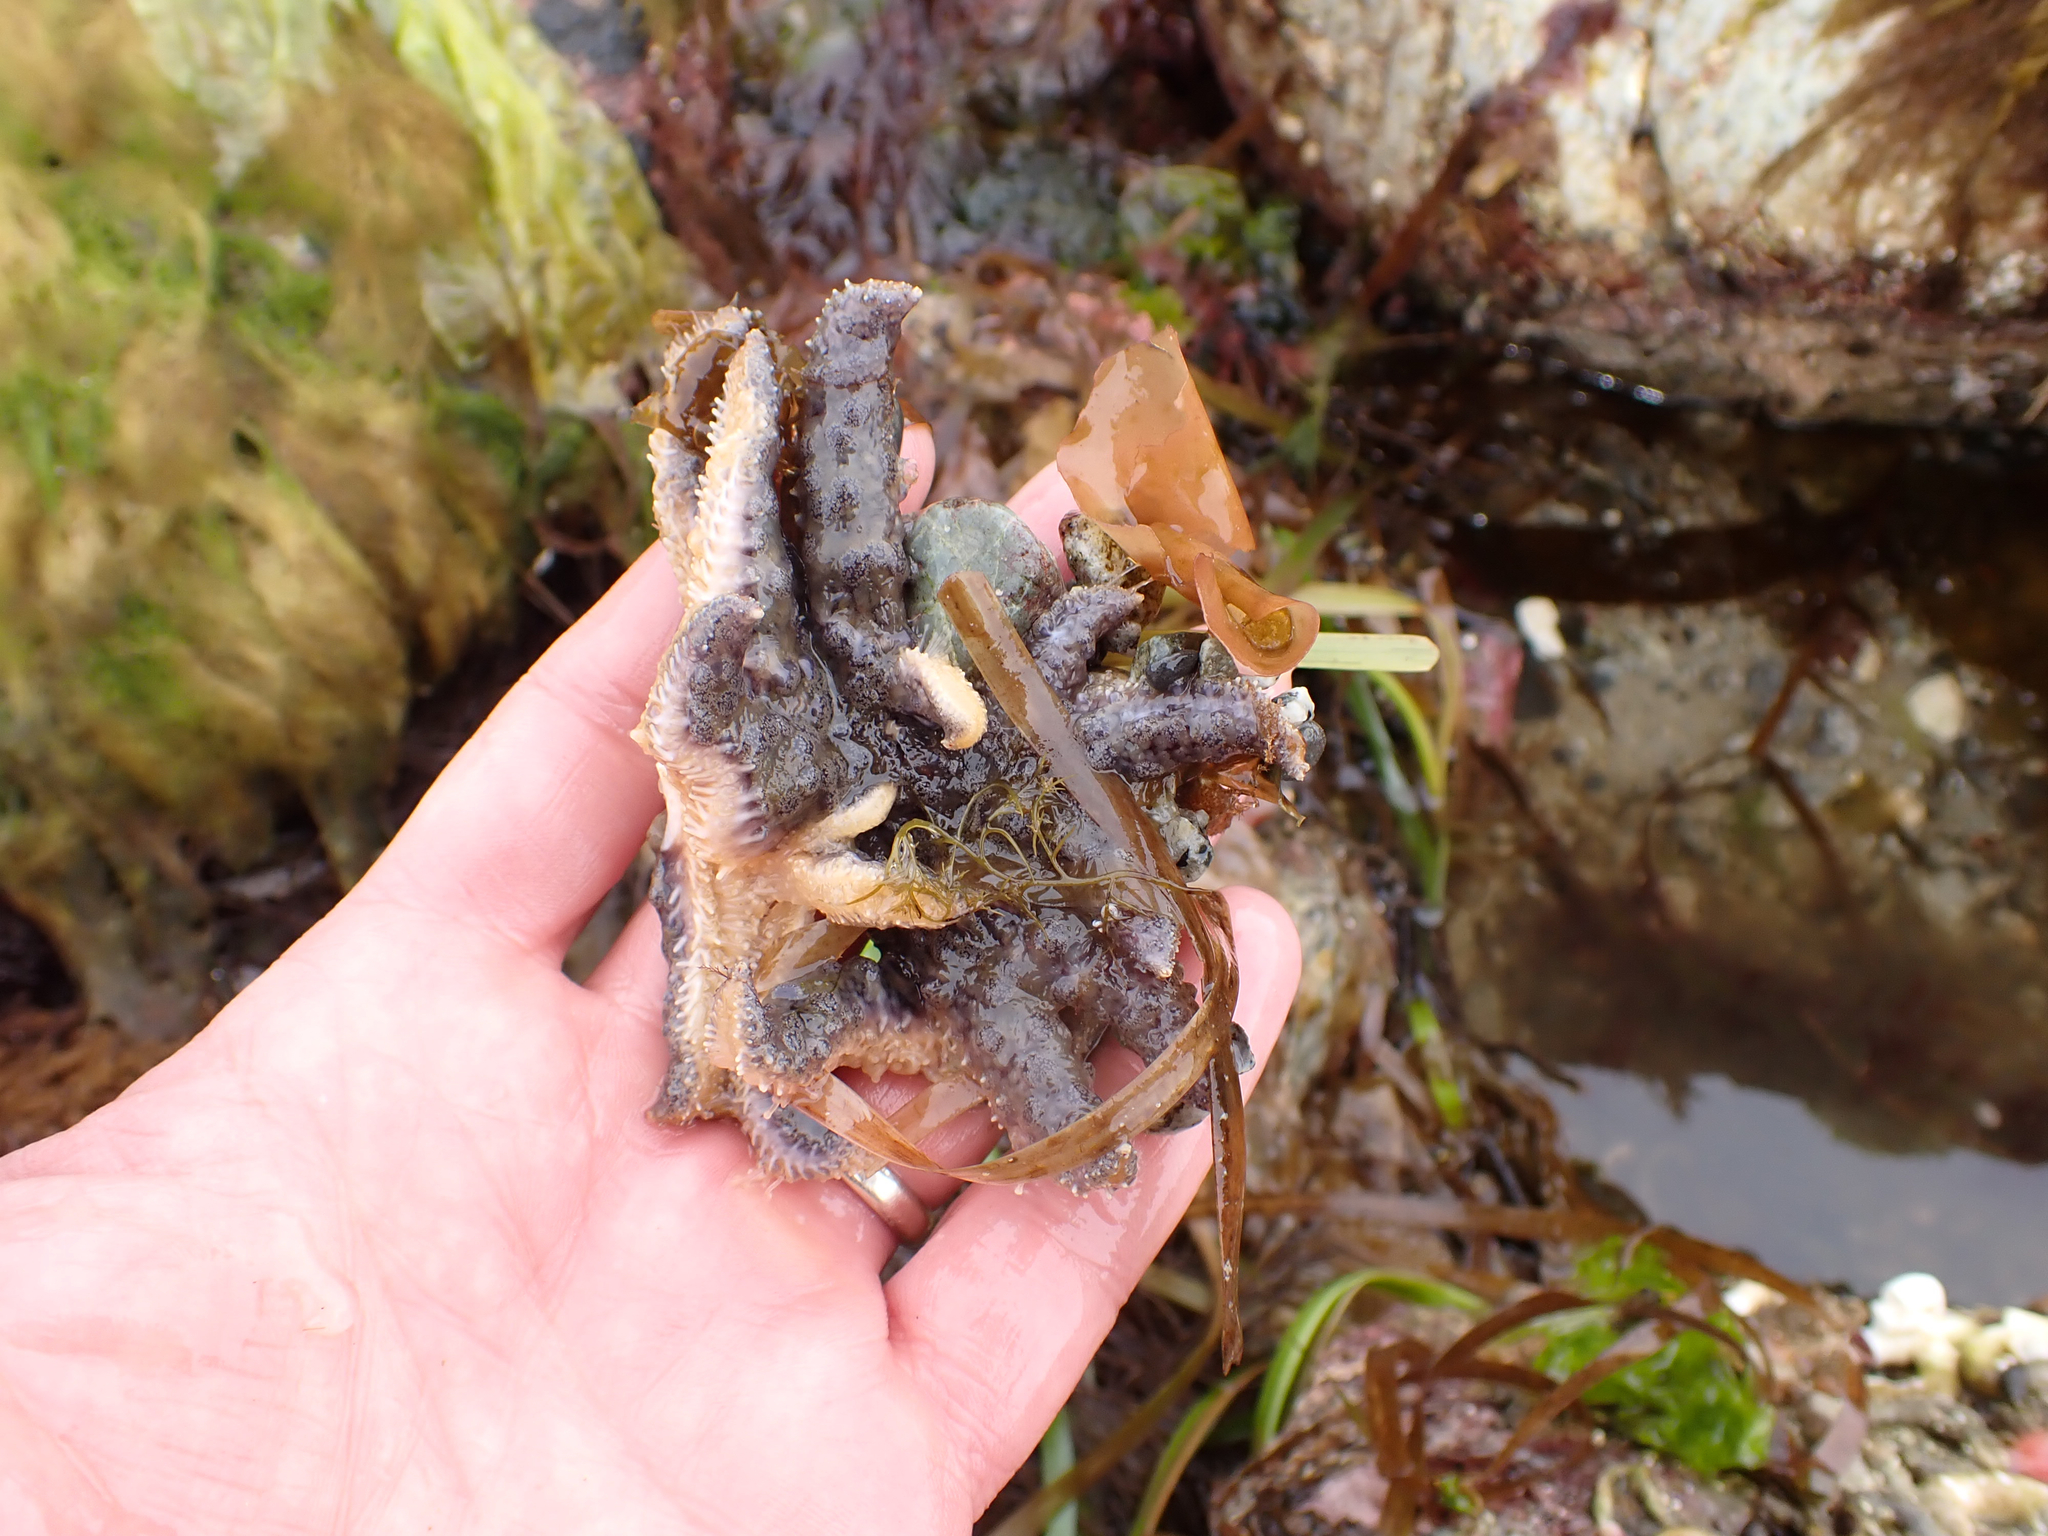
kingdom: Animalia
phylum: Echinodermata
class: Asteroidea
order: Forcipulatida
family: Asteriidae
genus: Pycnopodia
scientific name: Pycnopodia helianthoides
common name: Rag mop
